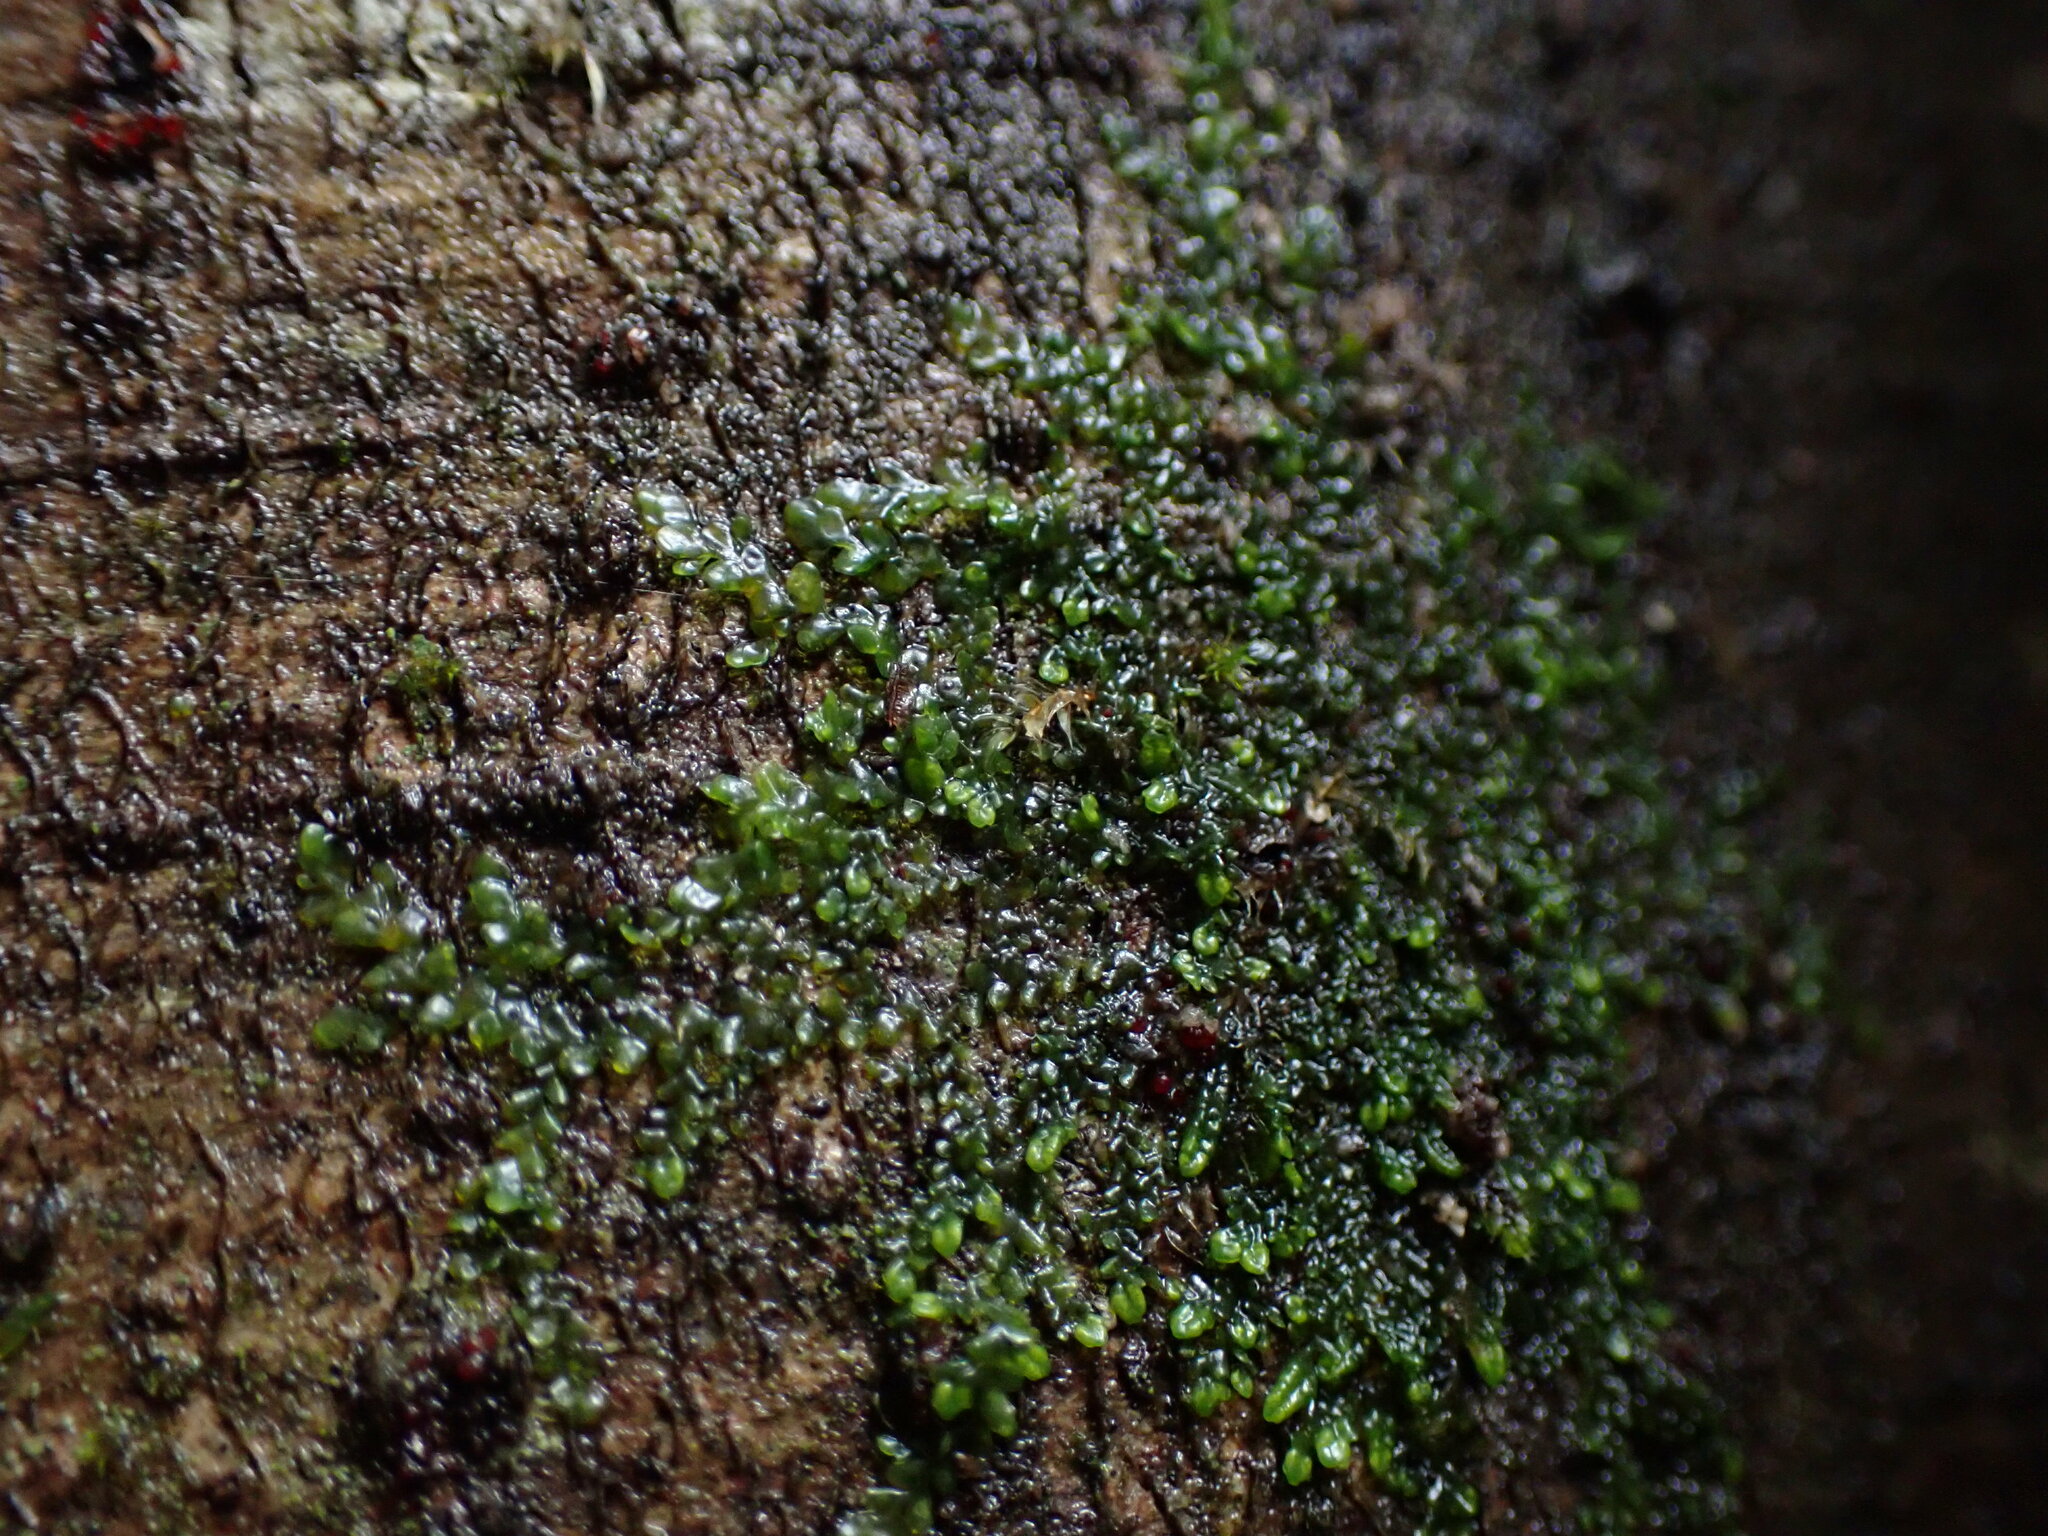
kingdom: Plantae
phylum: Marchantiophyta
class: Jungermanniopsida
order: Porellales
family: Radulaceae
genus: Radula
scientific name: Radula bolanderi
